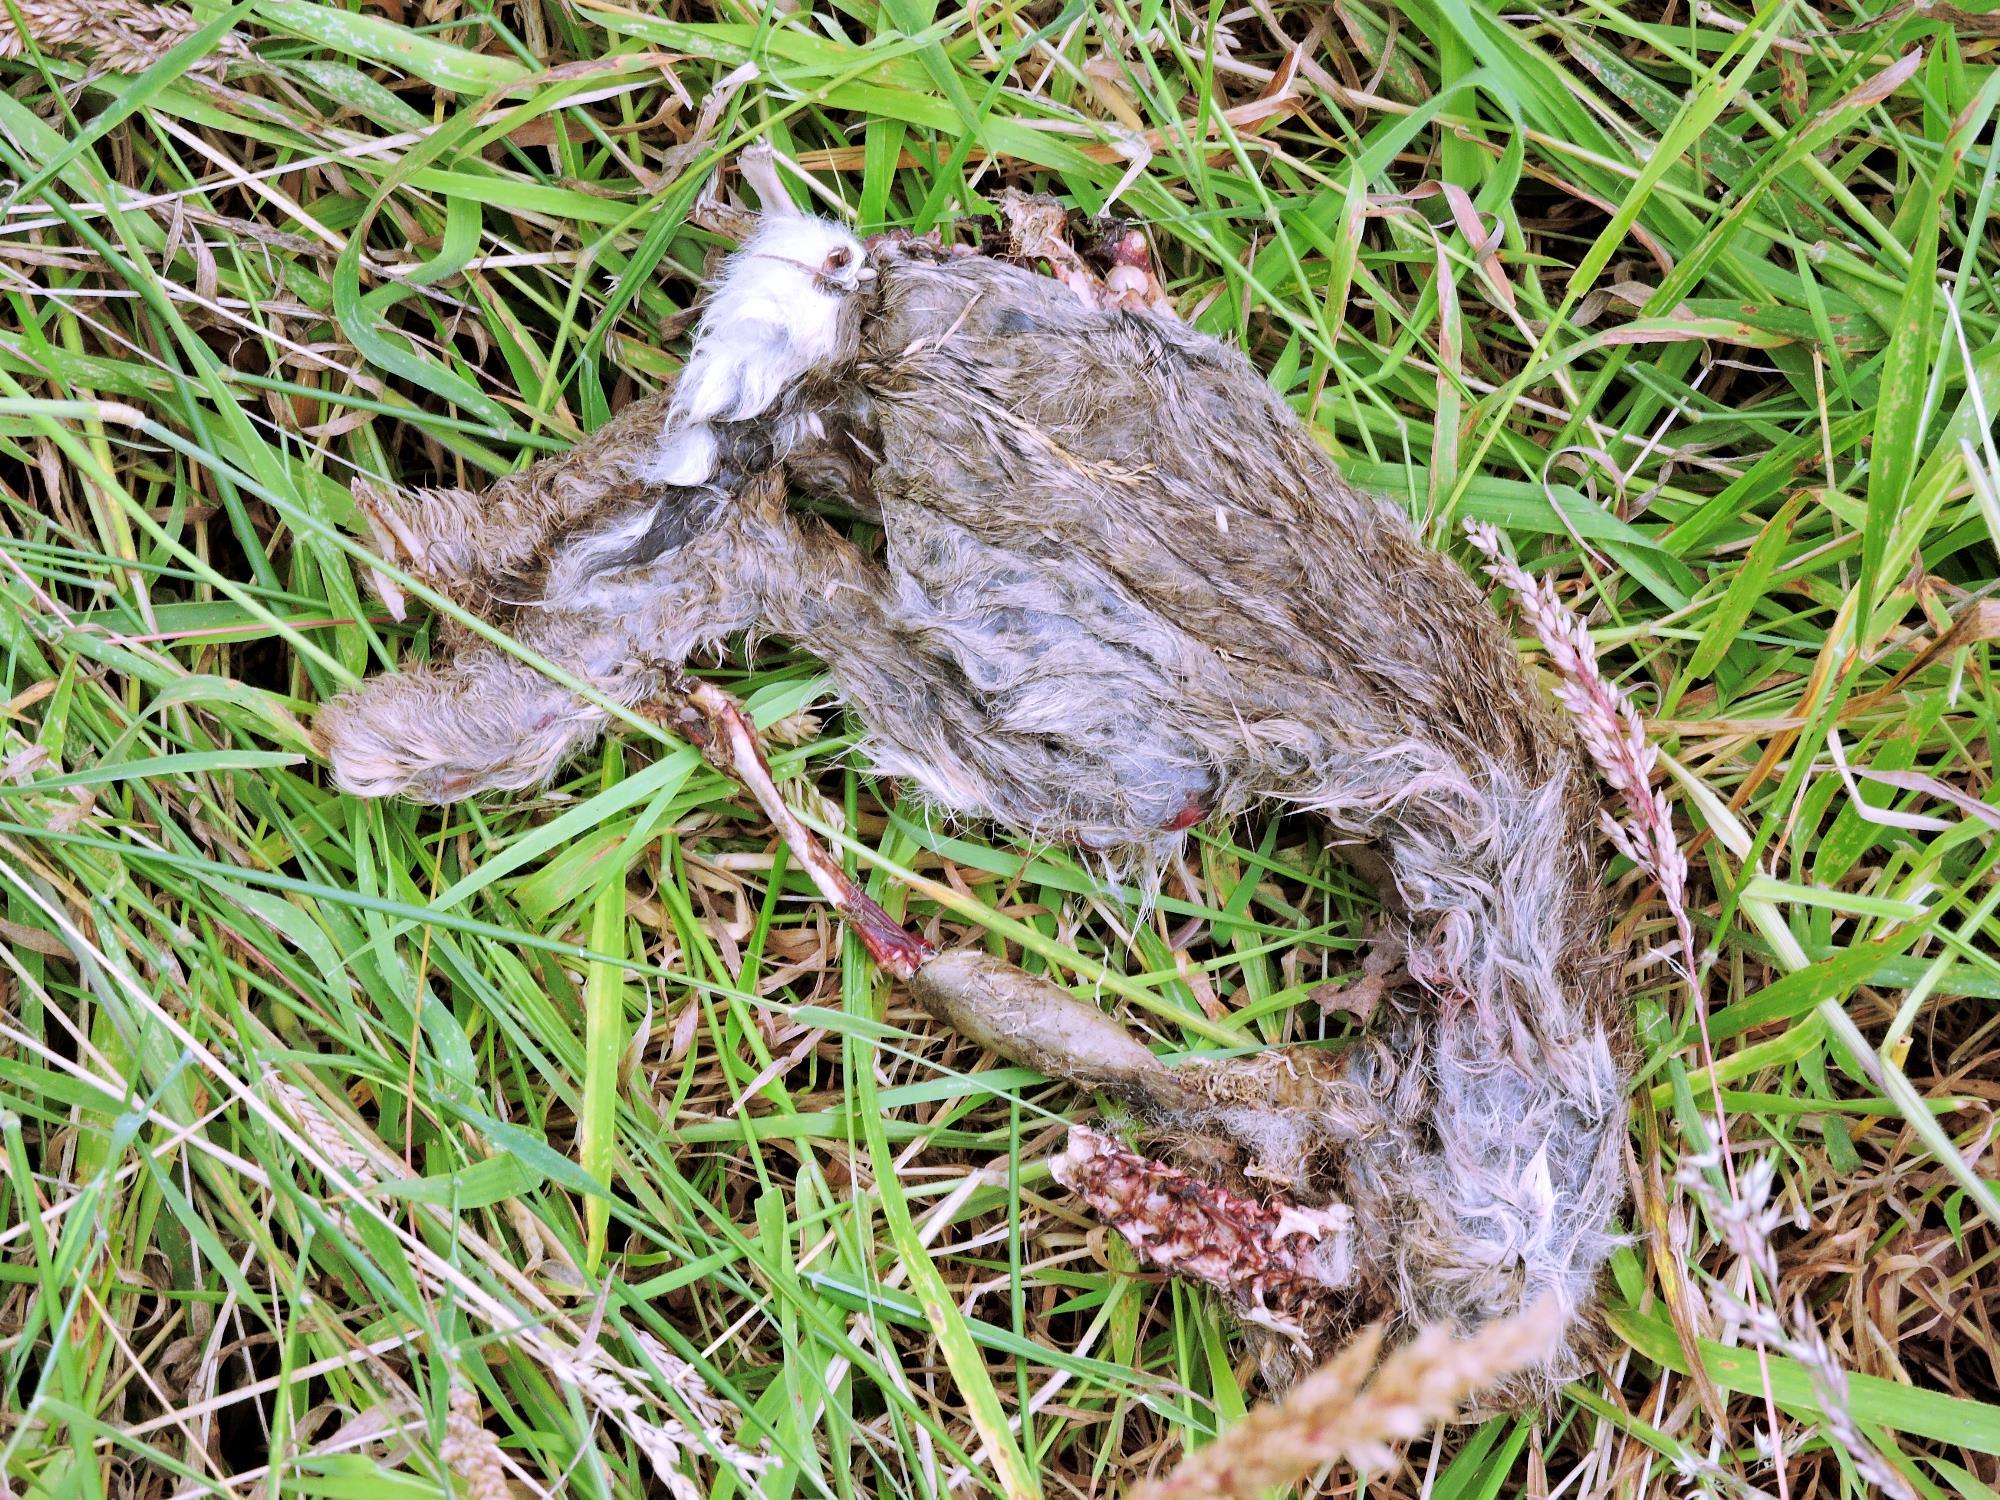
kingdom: Animalia
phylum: Chordata
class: Mammalia
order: Lagomorpha
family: Leporidae
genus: Oryctolagus
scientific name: Oryctolagus cuniculus
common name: European rabbit
